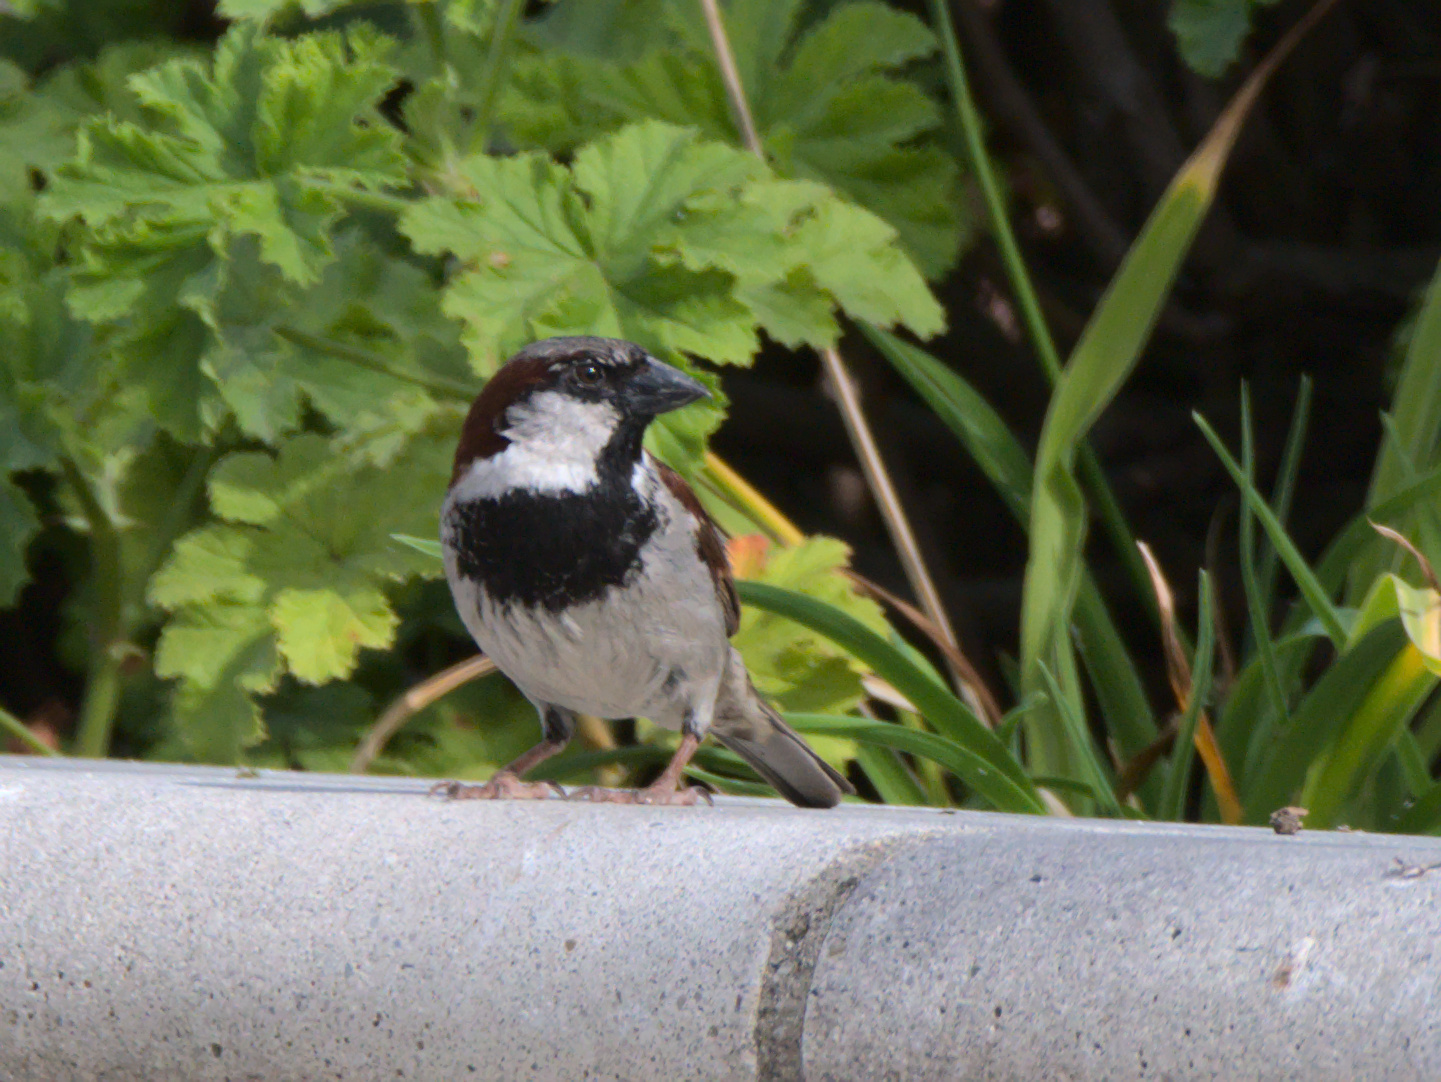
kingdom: Animalia
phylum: Chordata
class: Aves
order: Passeriformes
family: Passeridae
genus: Passer
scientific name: Passer domesticus
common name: House sparrow
